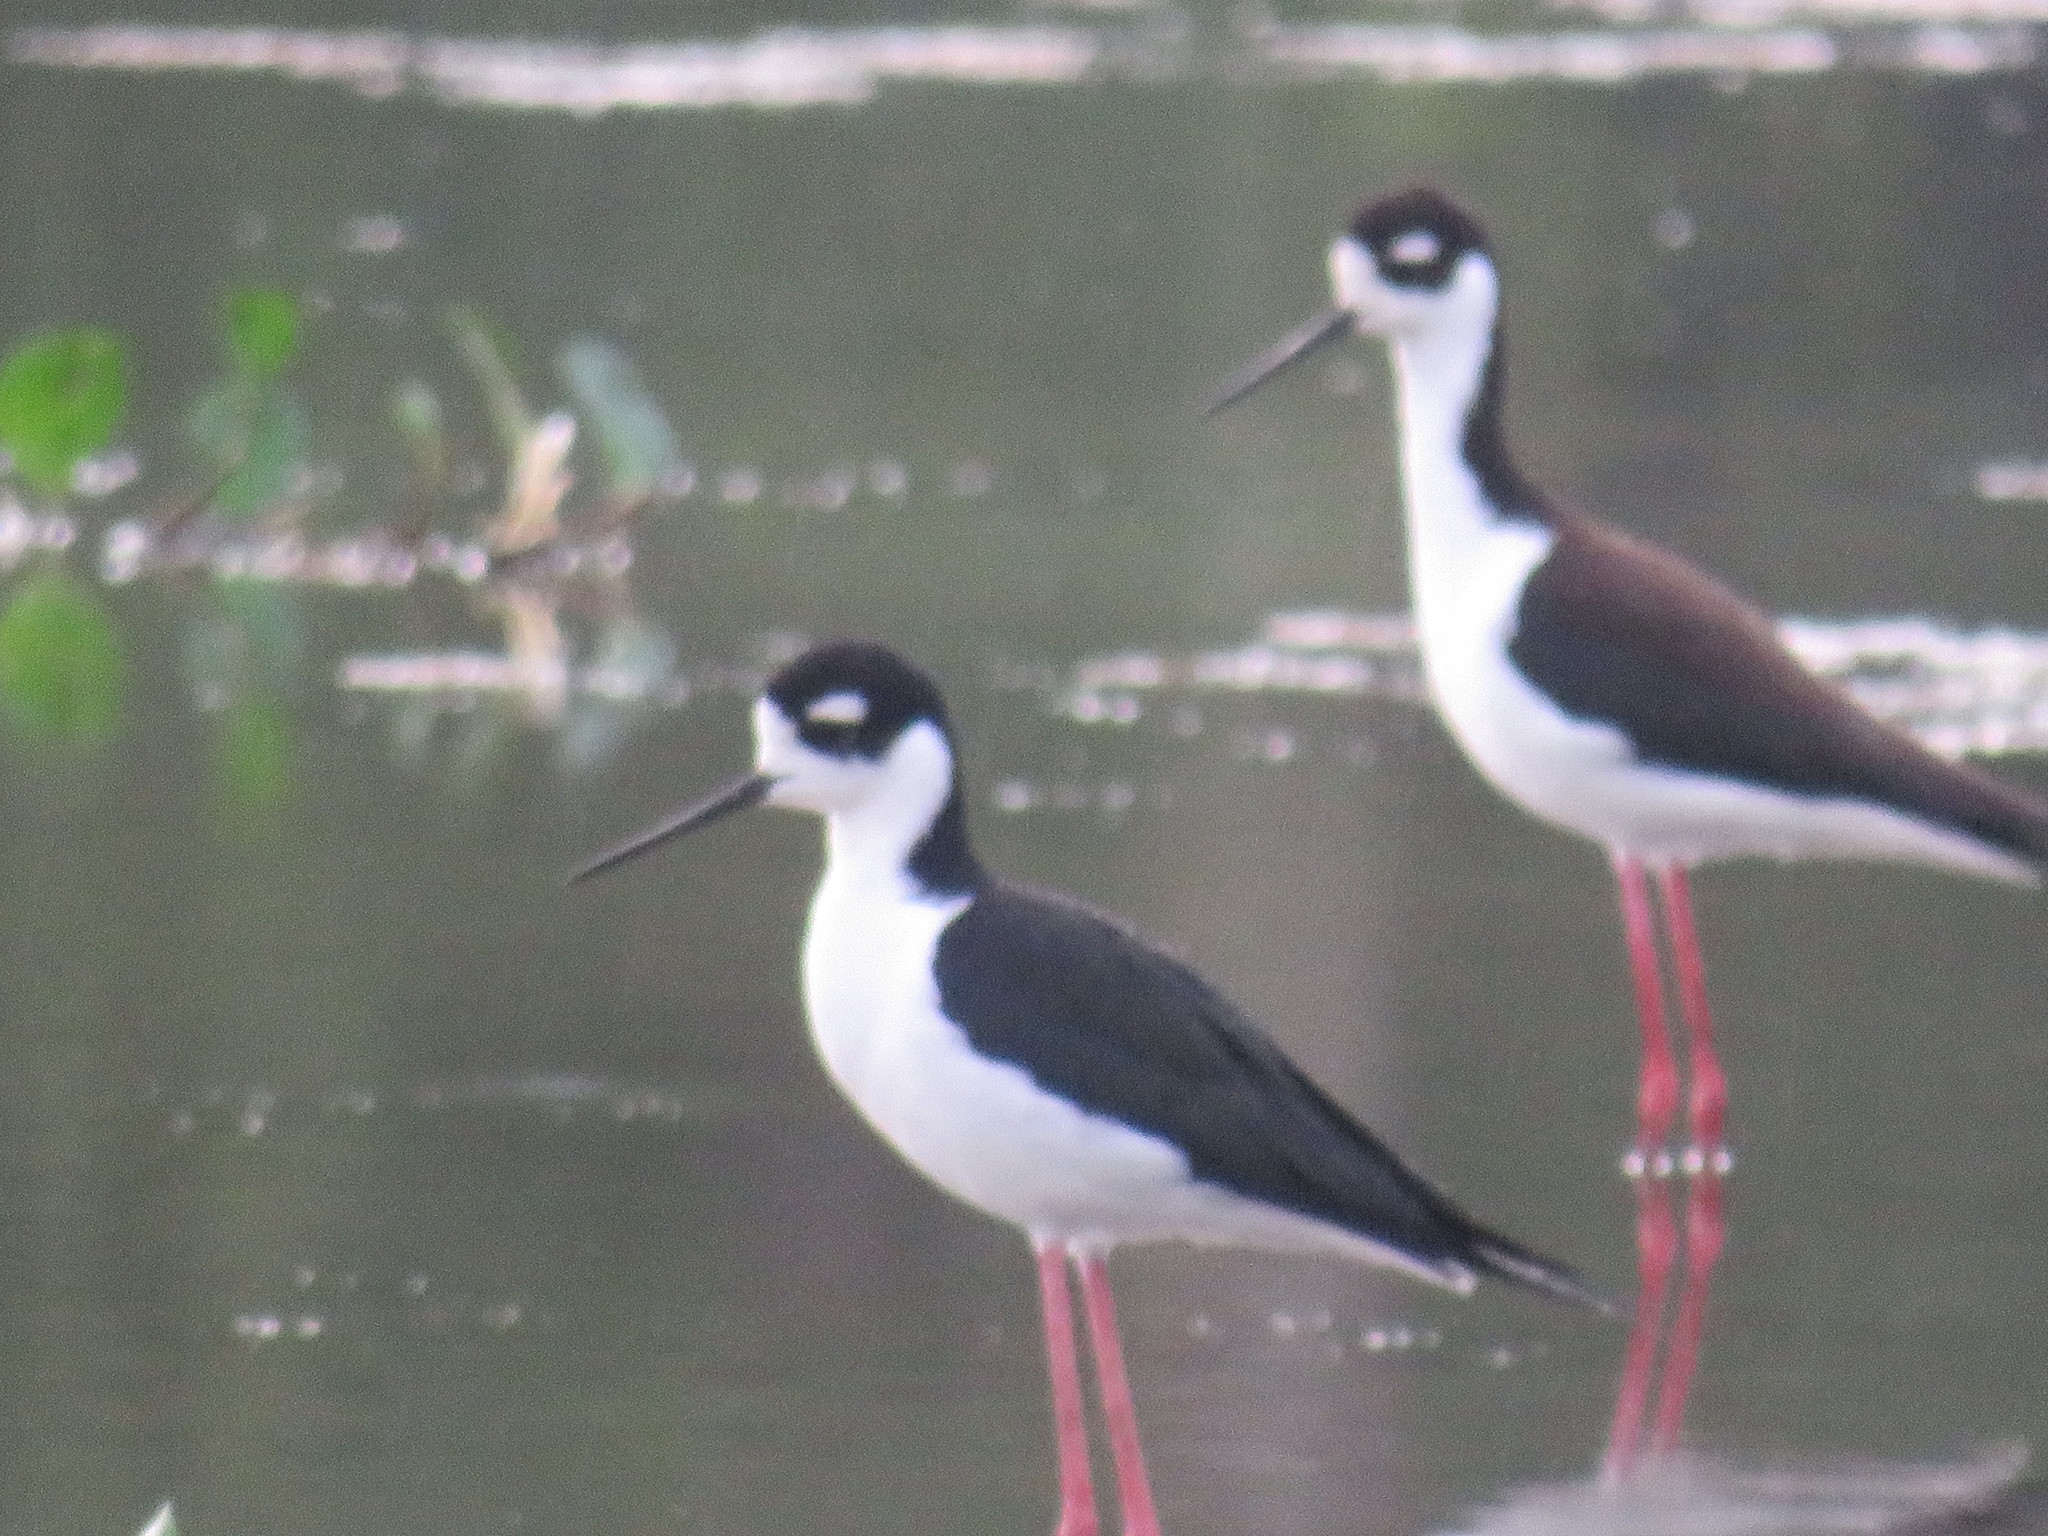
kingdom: Animalia
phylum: Chordata
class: Aves
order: Charadriiformes
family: Recurvirostridae
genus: Himantopus
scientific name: Himantopus mexicanus
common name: Black-necked stilt
